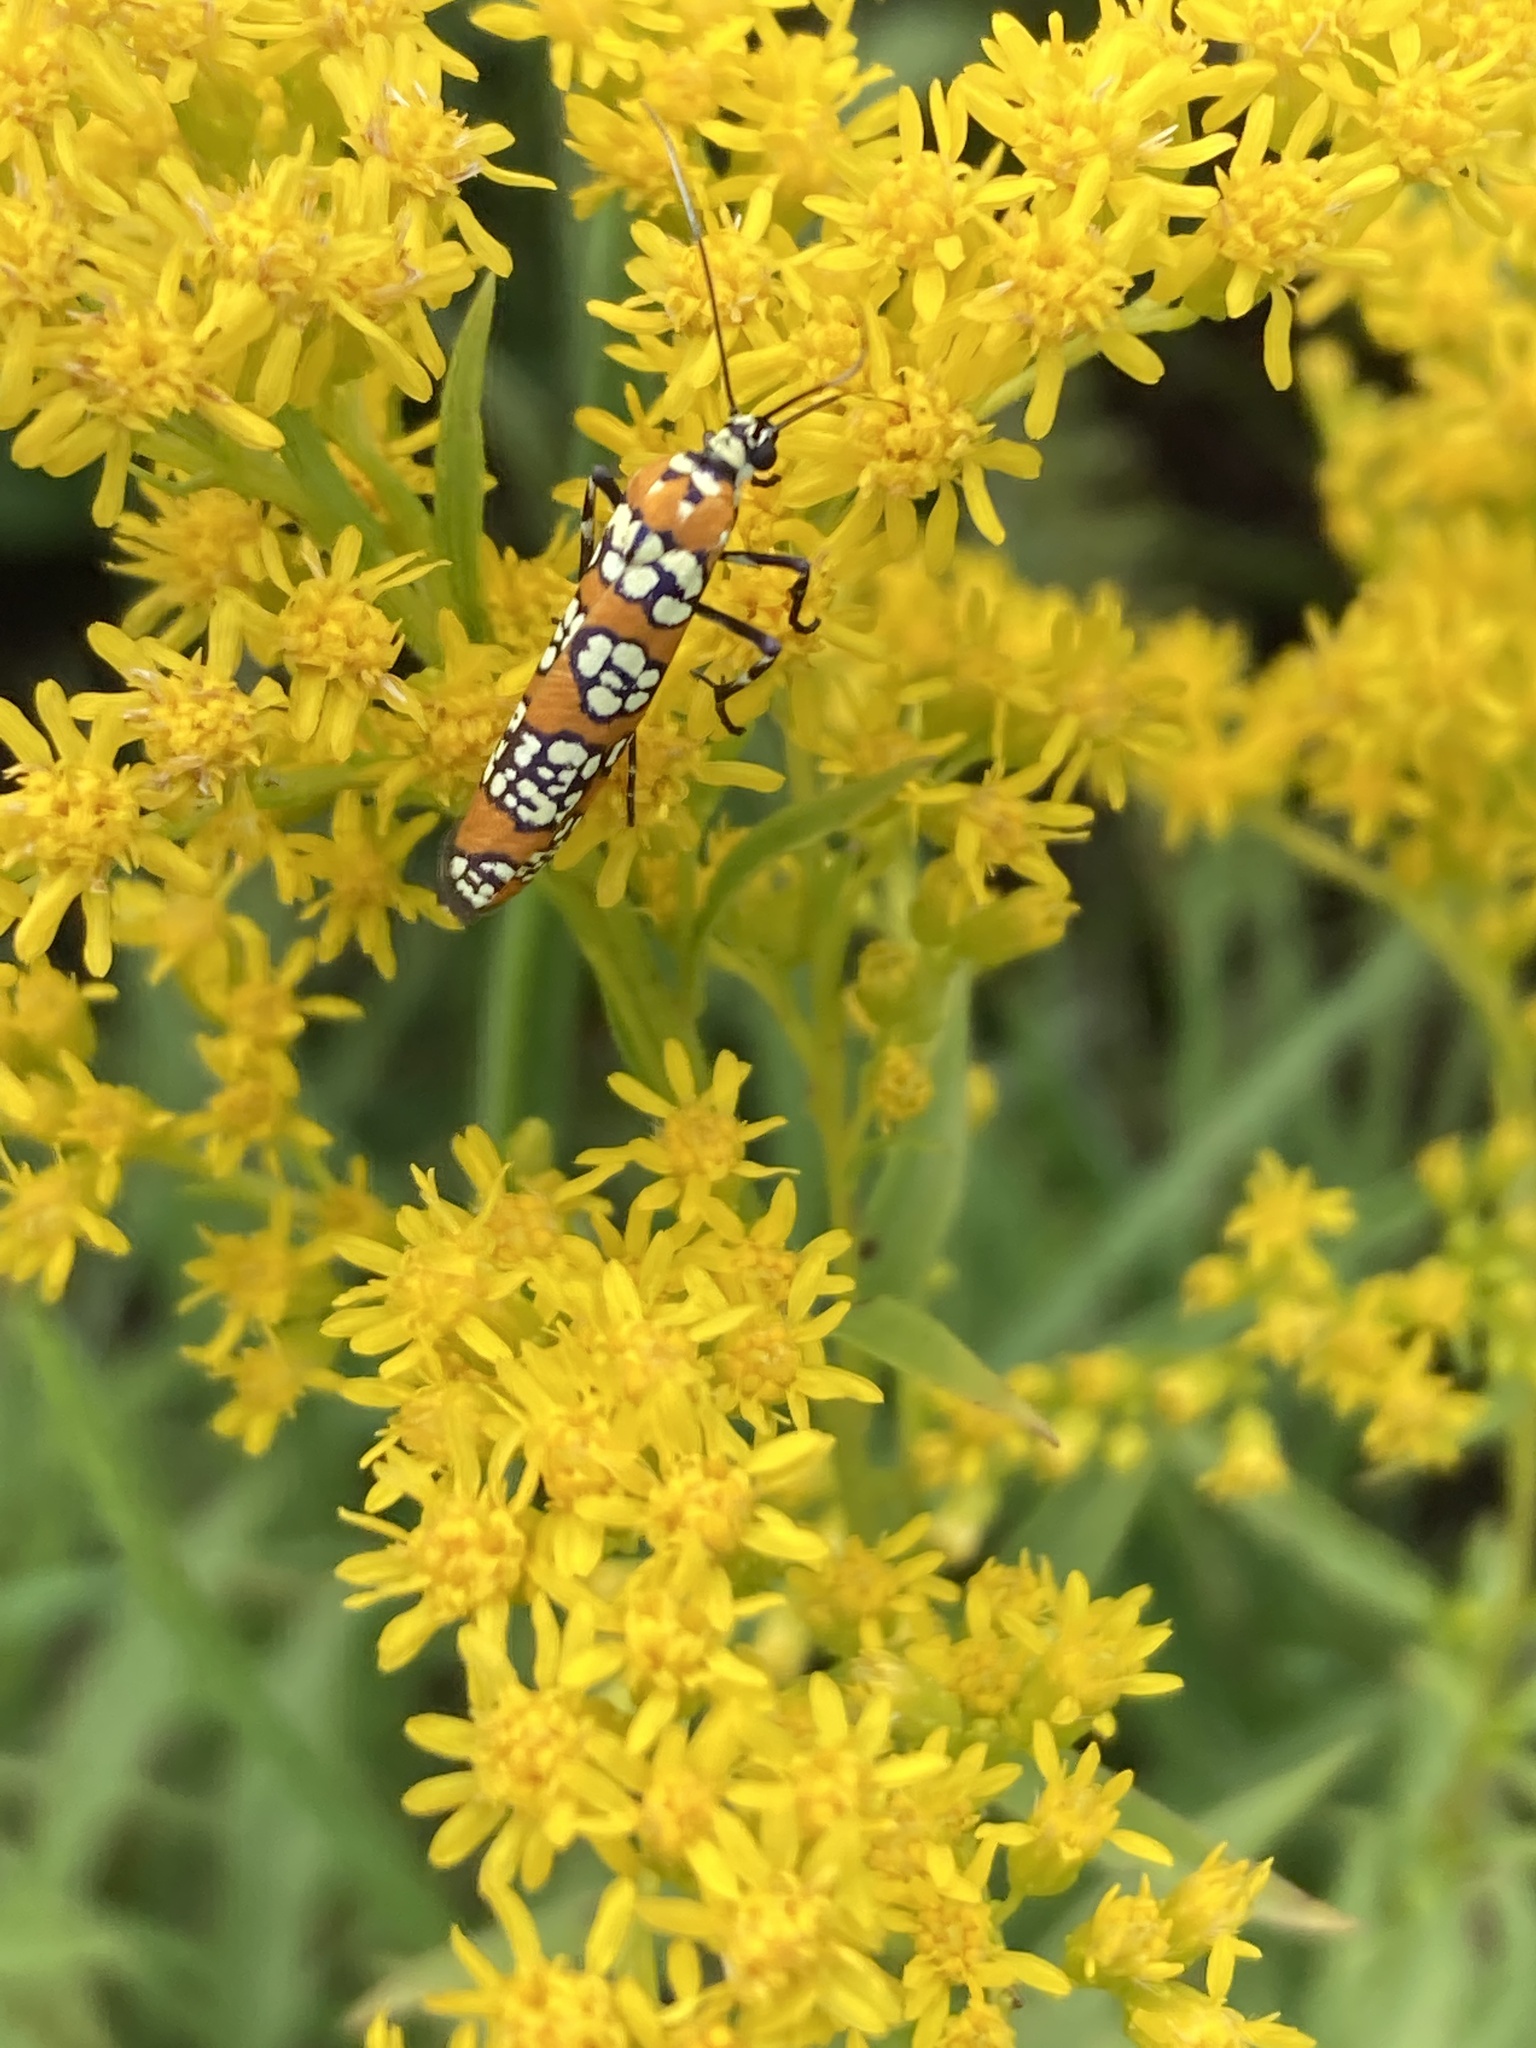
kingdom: Animalia
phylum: Arthropoda
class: Insecta
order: Lepidoptera
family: Attevidae
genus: Atteva
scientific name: Atteva punctella
